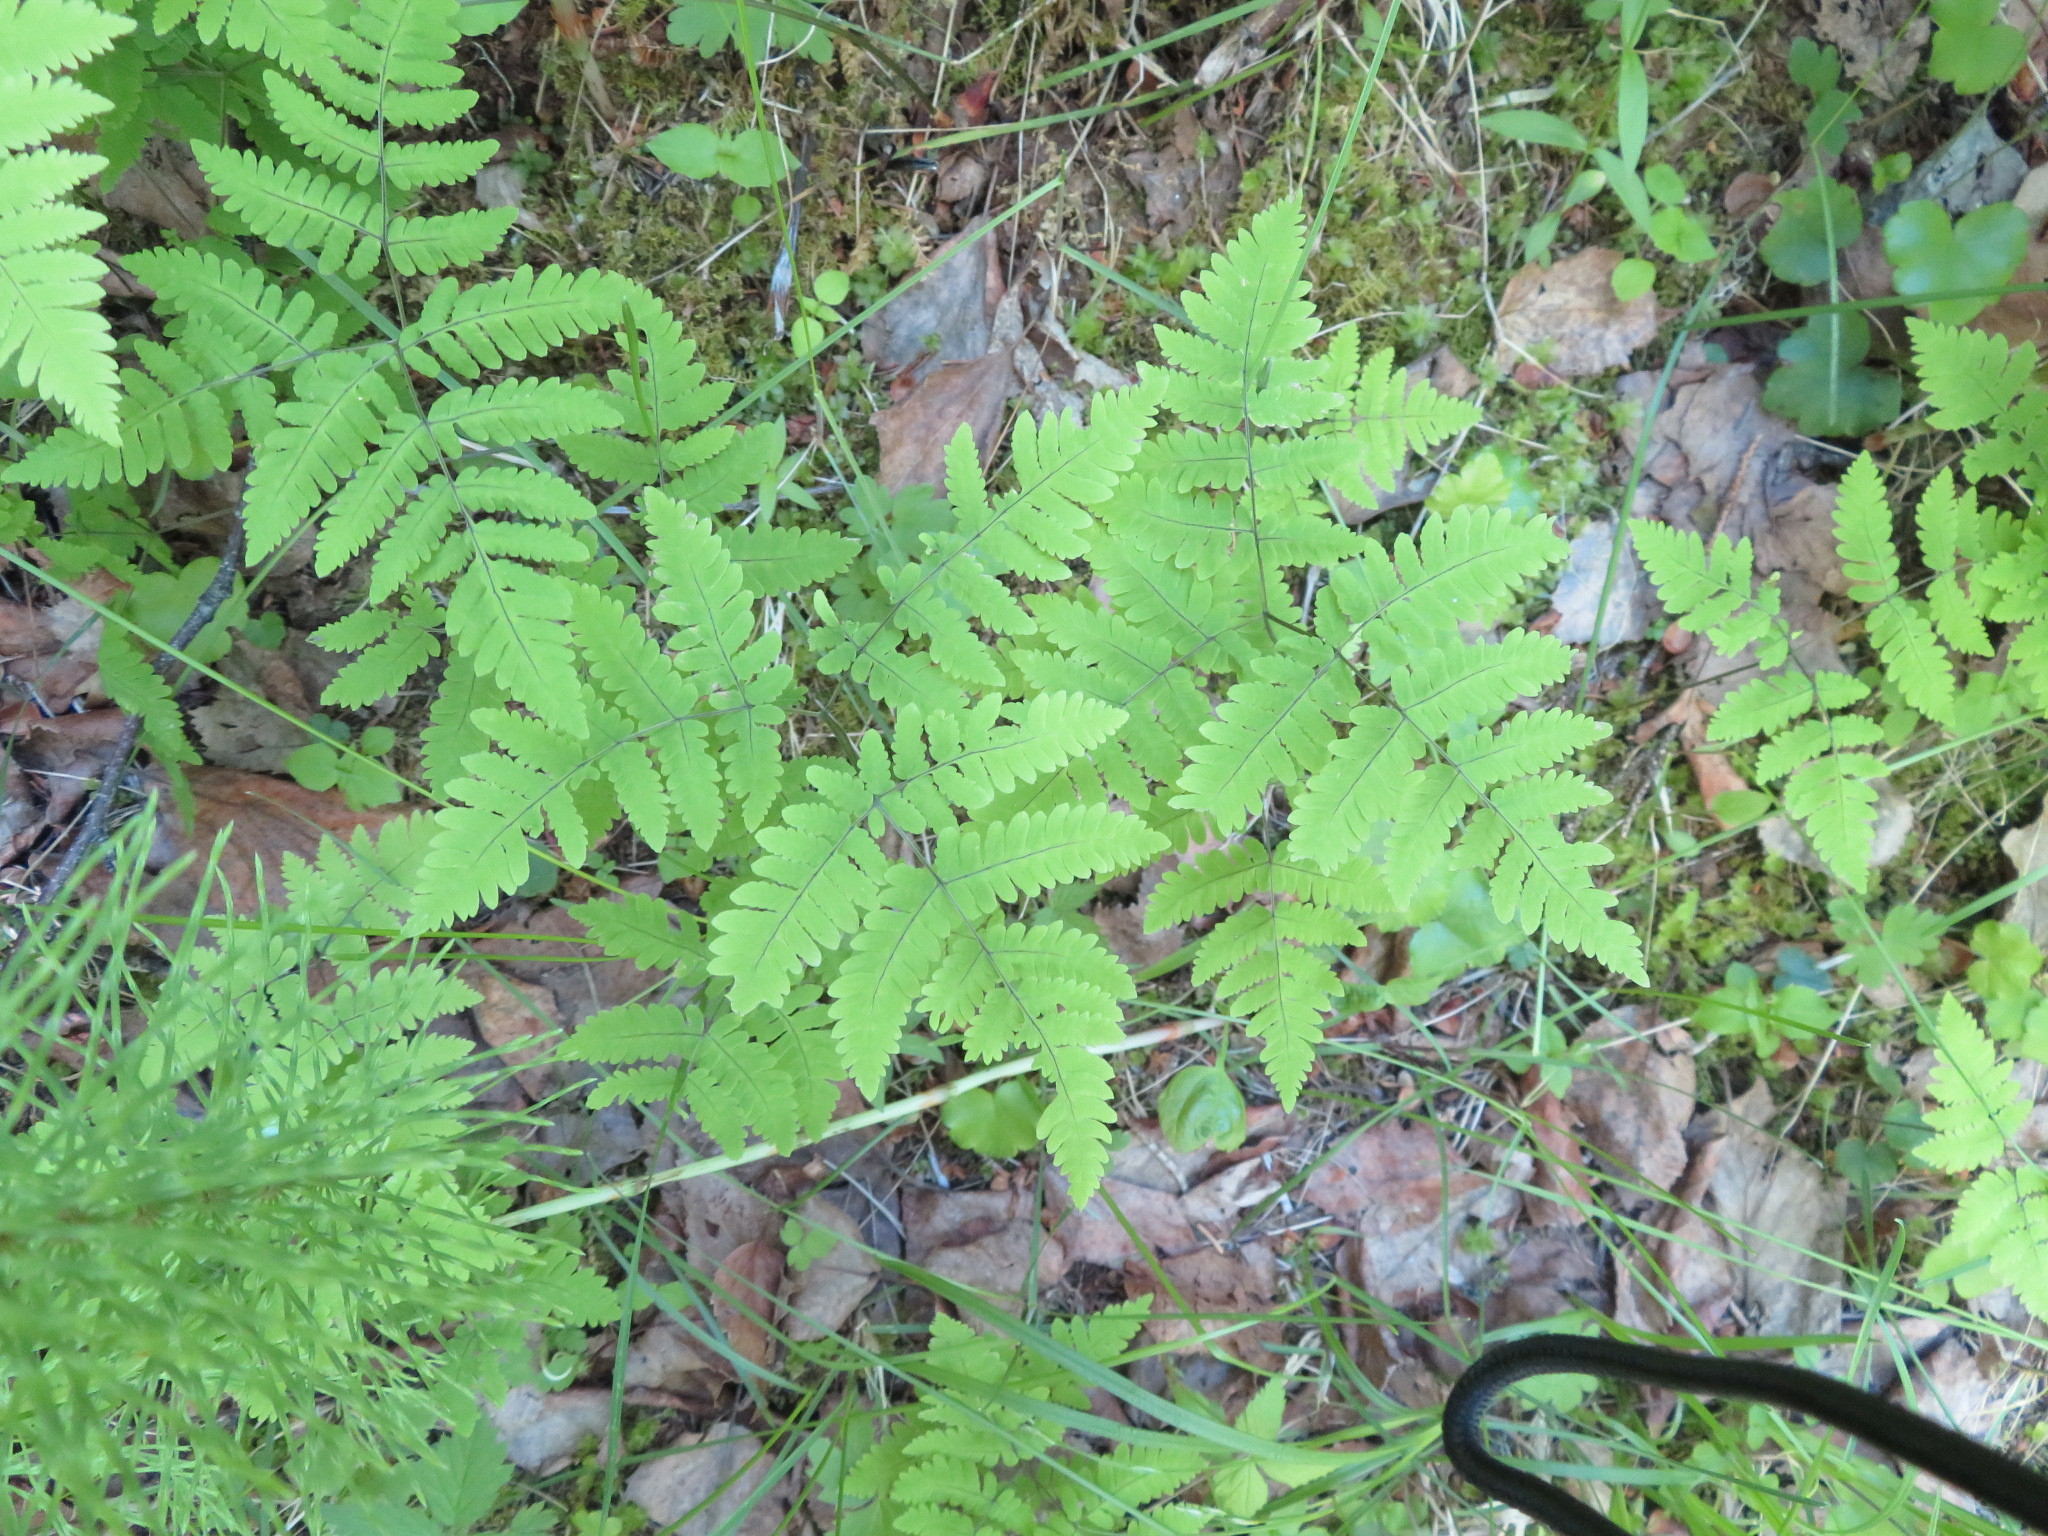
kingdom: Plantae
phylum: Tracheophyta
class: Polypodiopsida
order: Polypodiales
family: Cystopteridaceae
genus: Gymnocarpium
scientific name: Gymnocarpium dryopteris
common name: Oak fern
